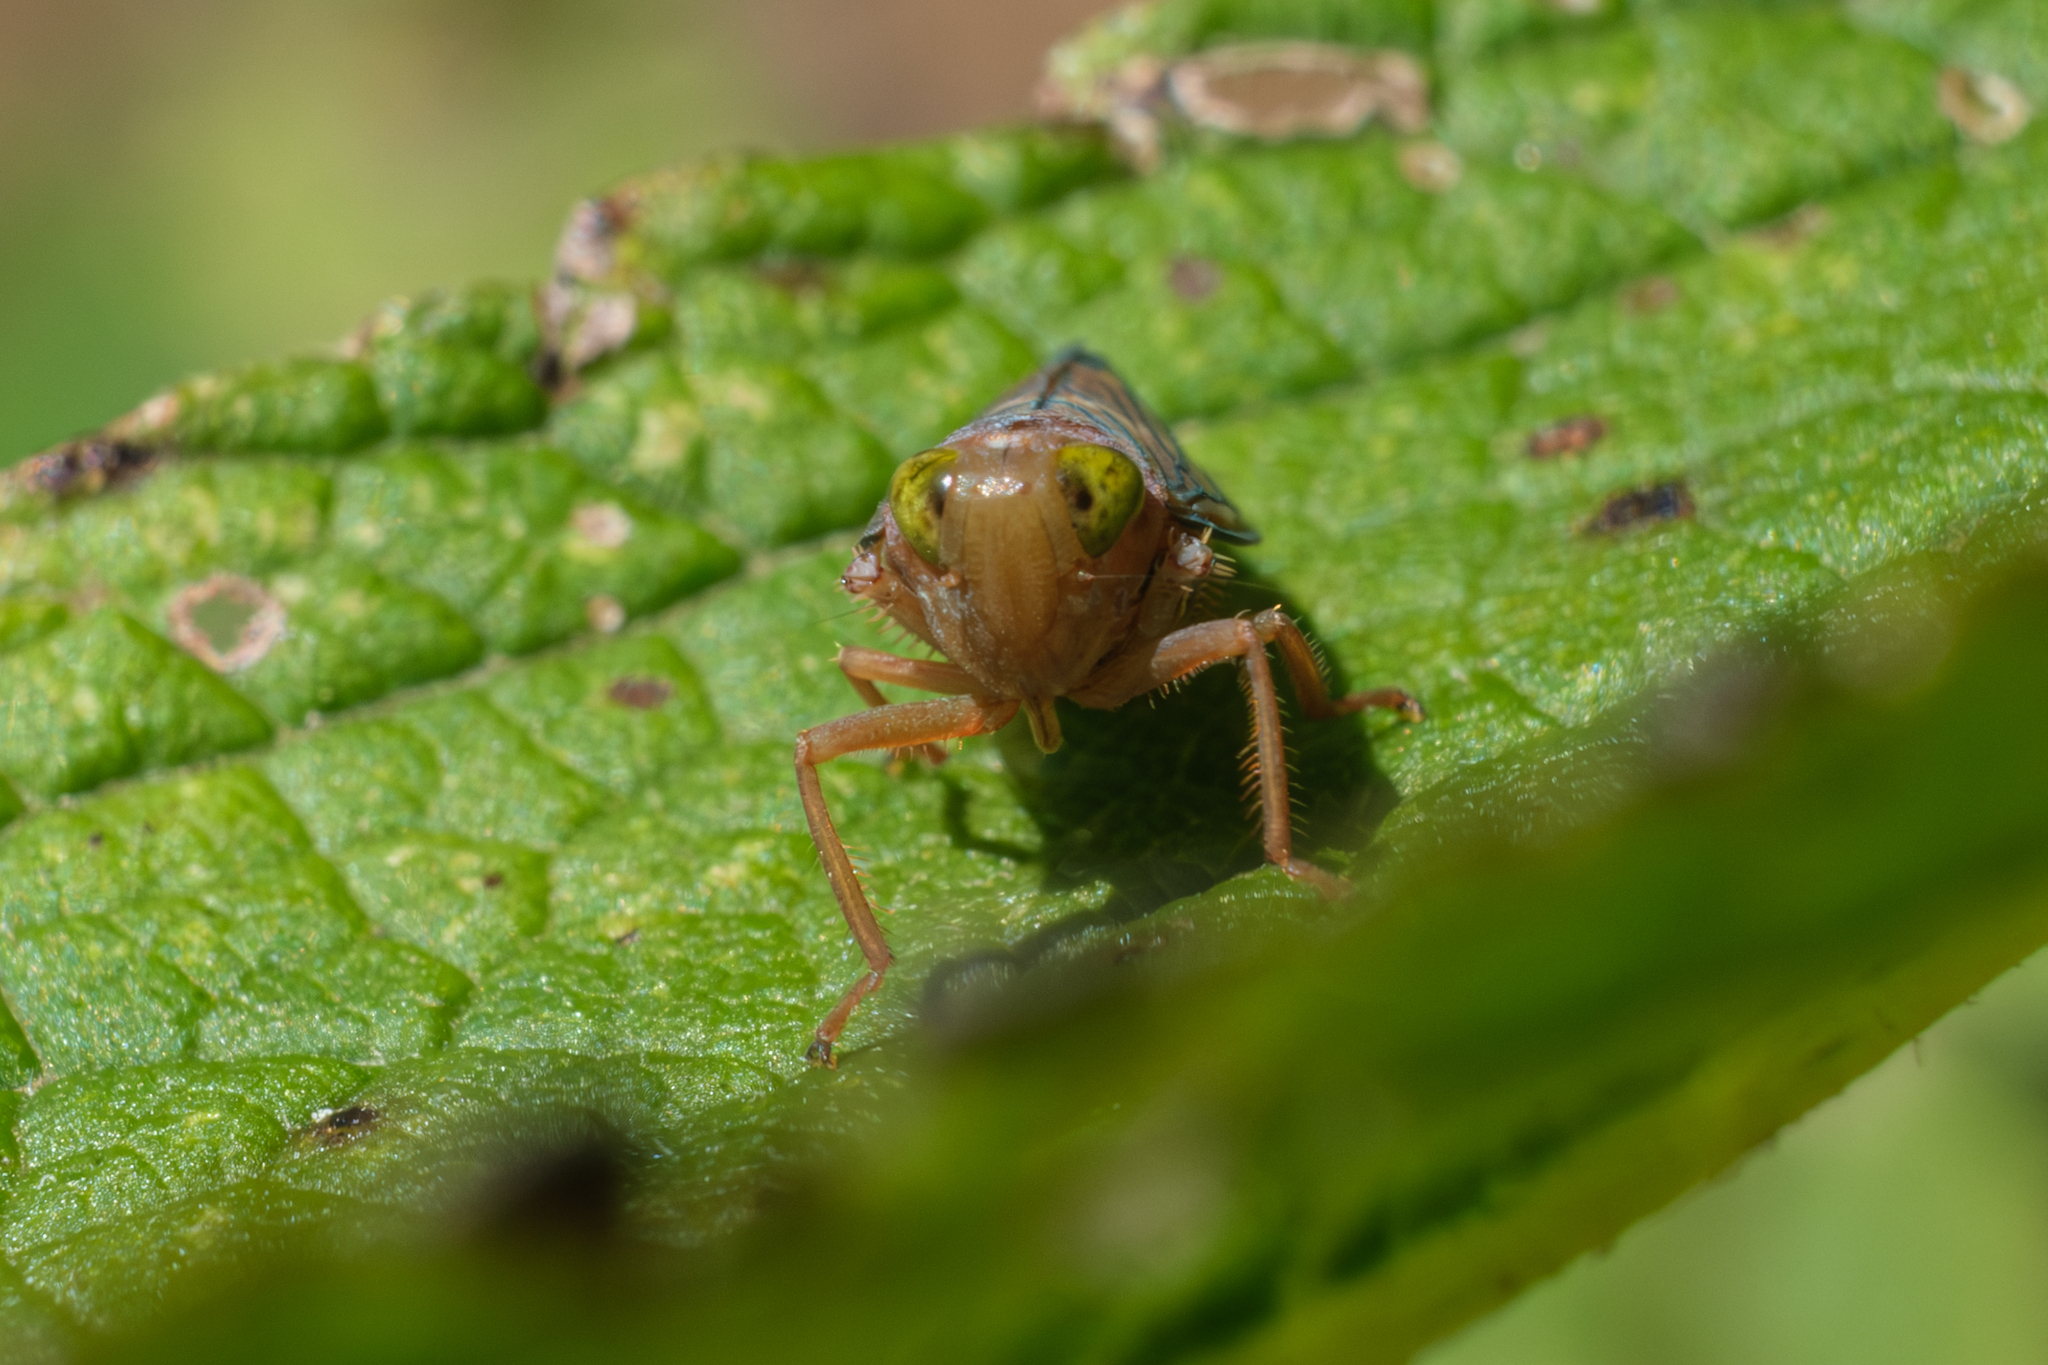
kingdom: Animalia
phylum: Arthropoda
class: Insecta
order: Hemiptera
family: Cicadellidae
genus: Jikradia
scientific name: Jikradia olitoria
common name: Coppery leafhopper
